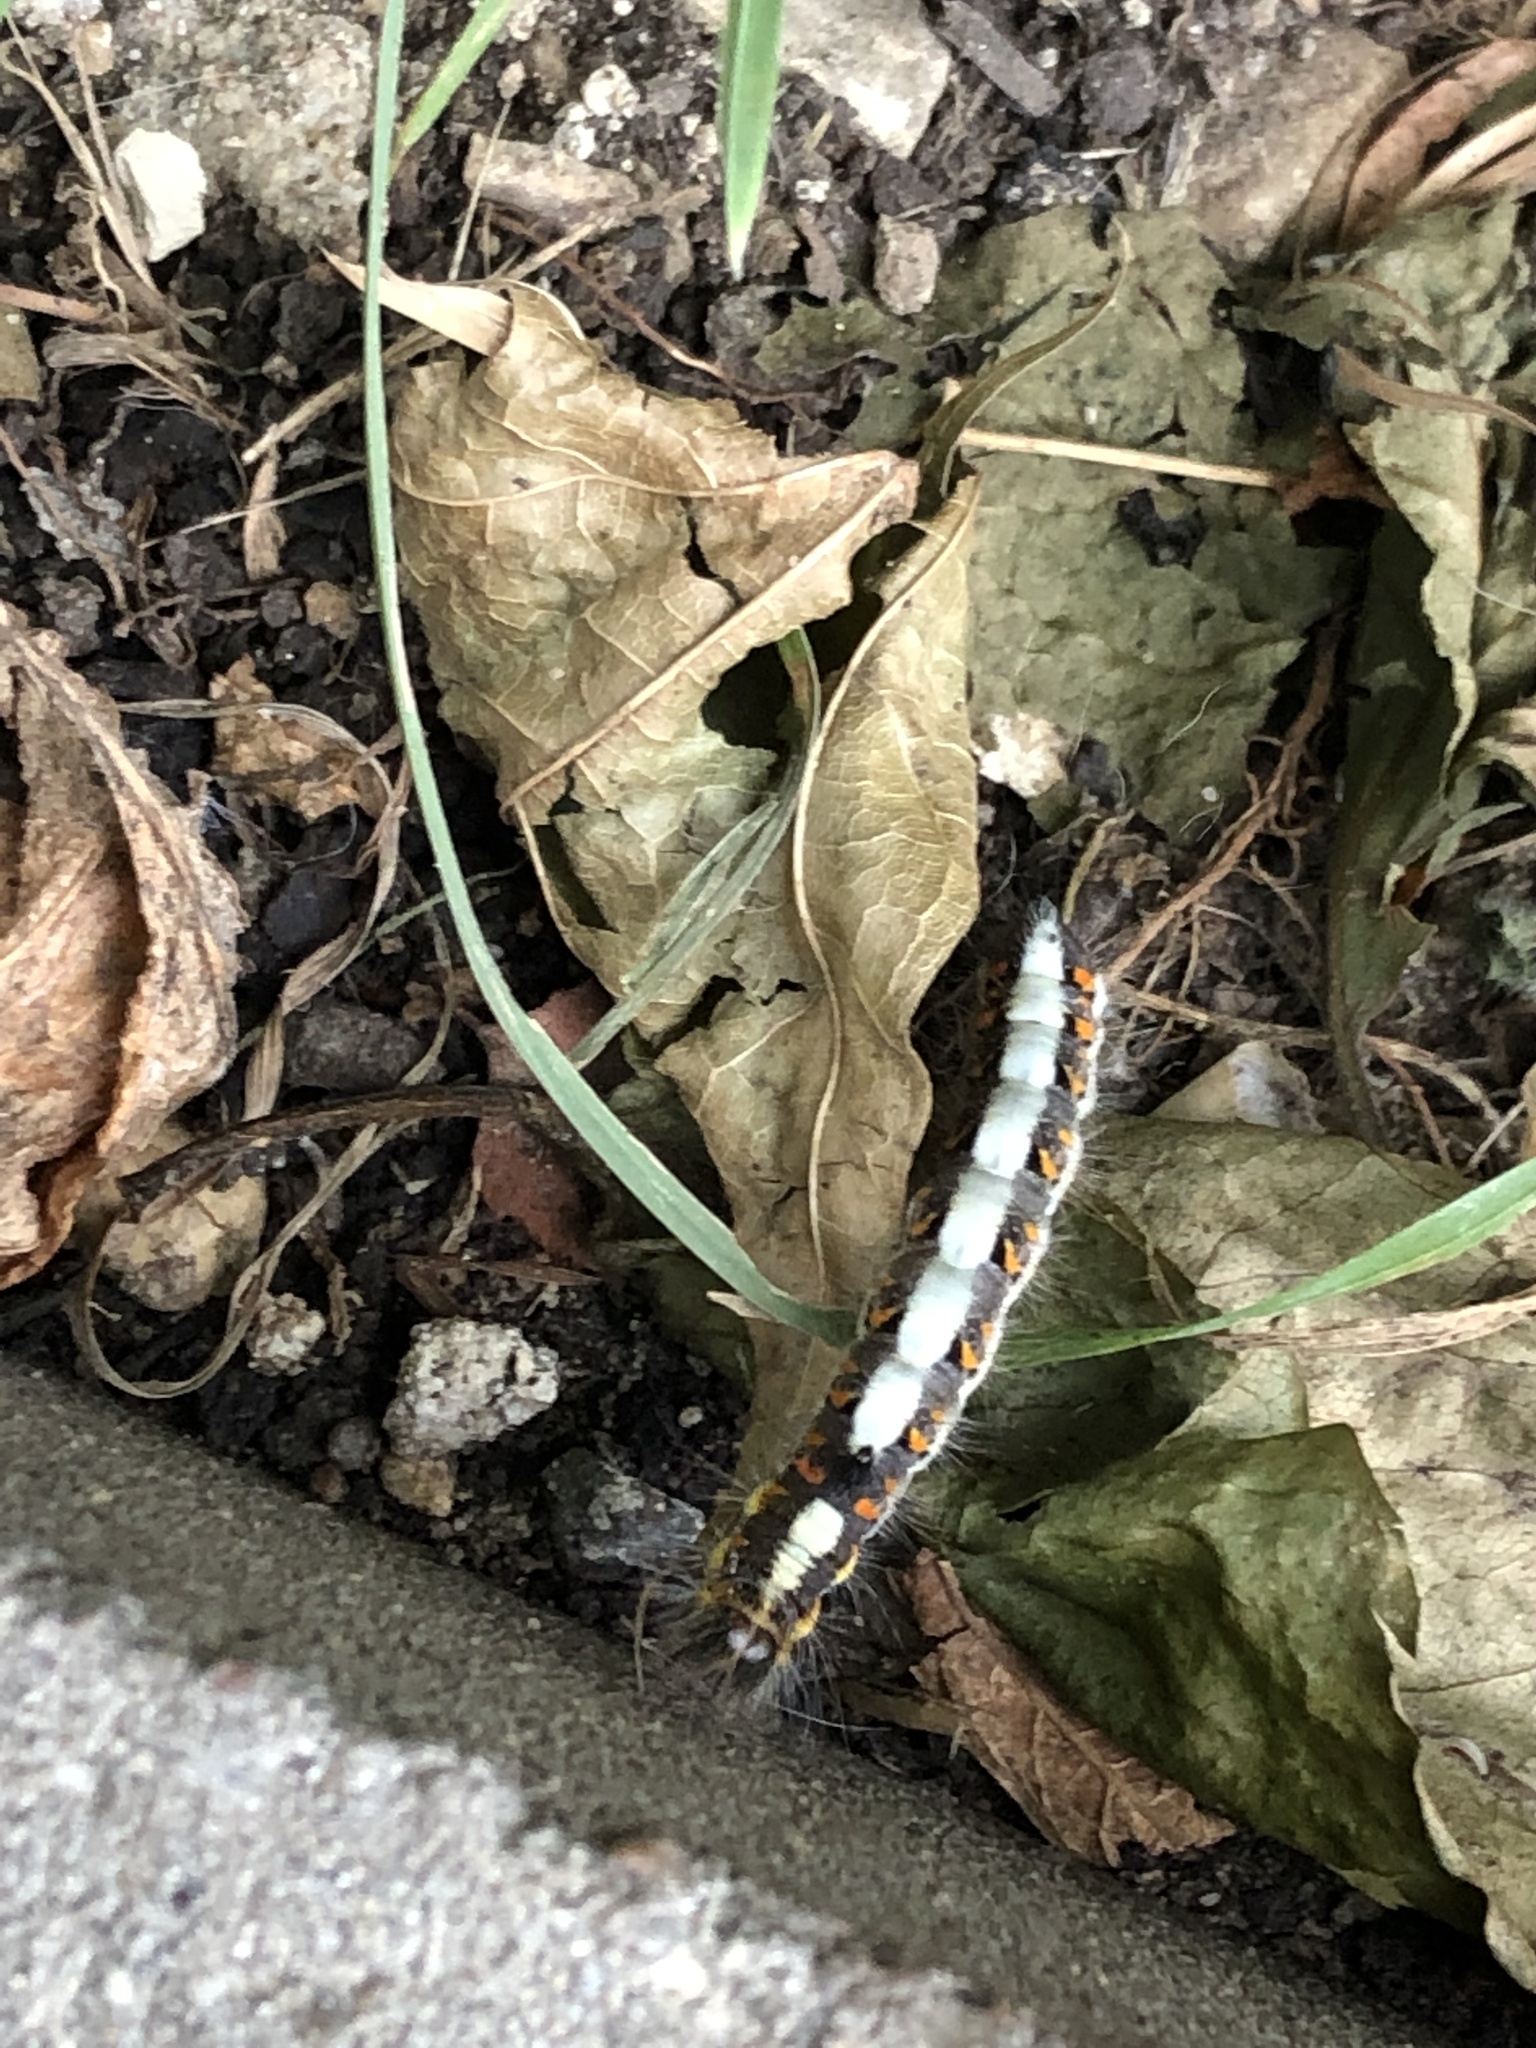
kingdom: Animalia
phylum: Arthropoda
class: Insecta
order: Lepidoptera
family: Noctuidae
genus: Acronicta
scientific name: Acronicta psi
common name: Grey dagger
